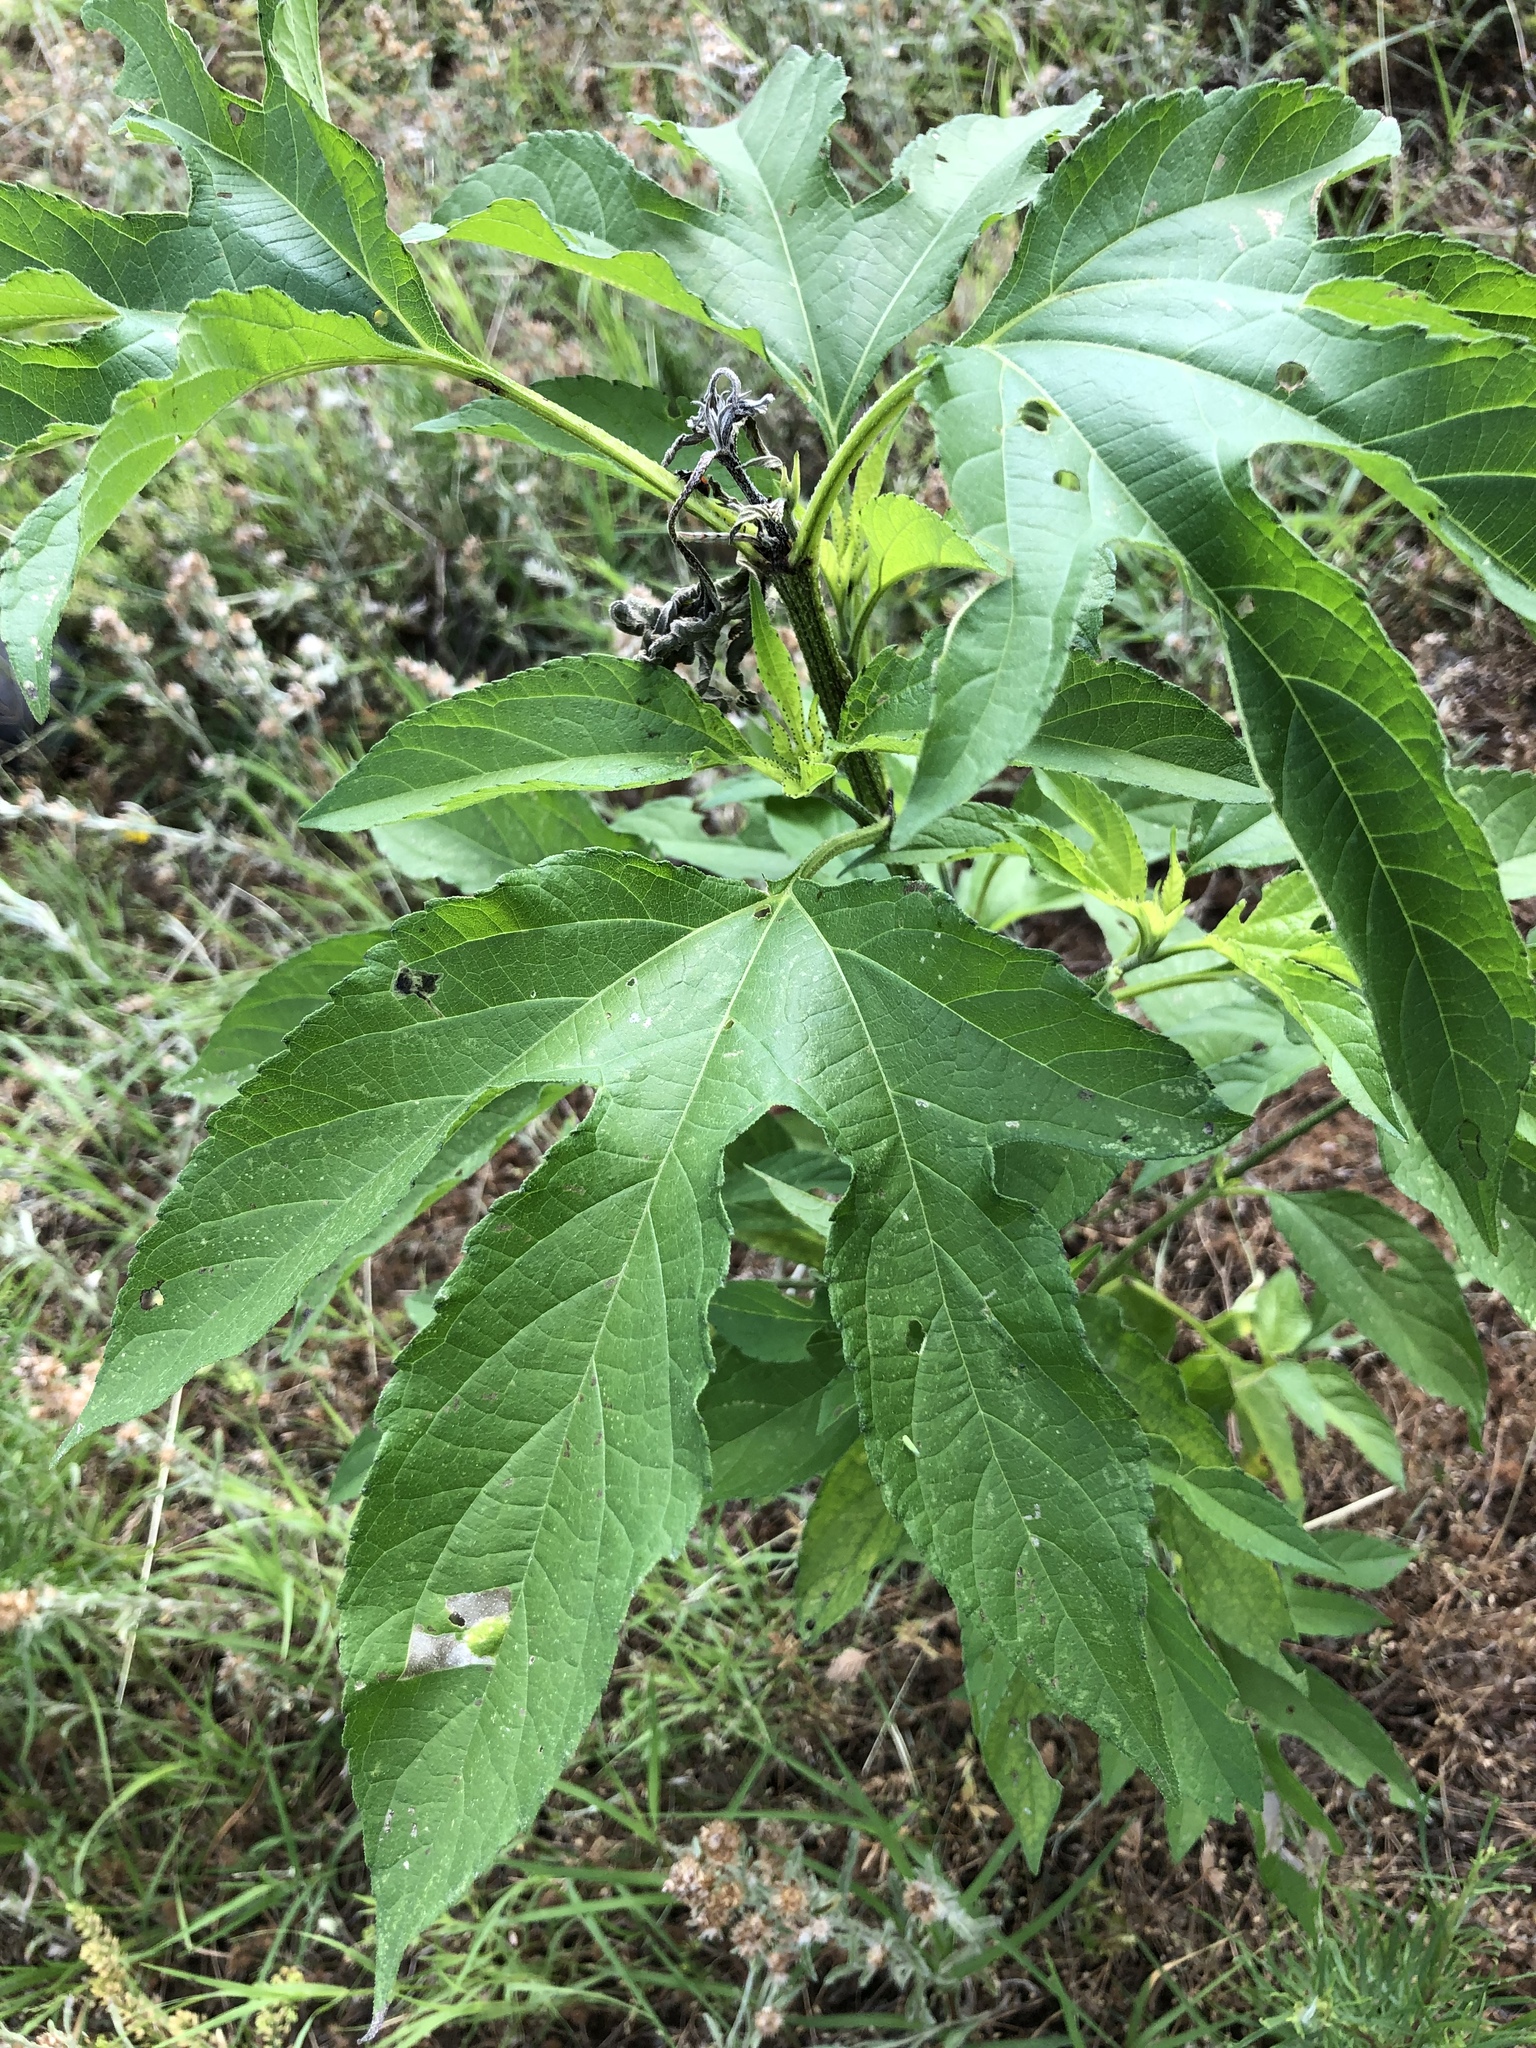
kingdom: Plantae
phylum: Tracheophyta
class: Magnoliopsida
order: Asterales
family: Asteraceae
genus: Ambrosia
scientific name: Ambrosia trifida
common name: Giant ragweed
